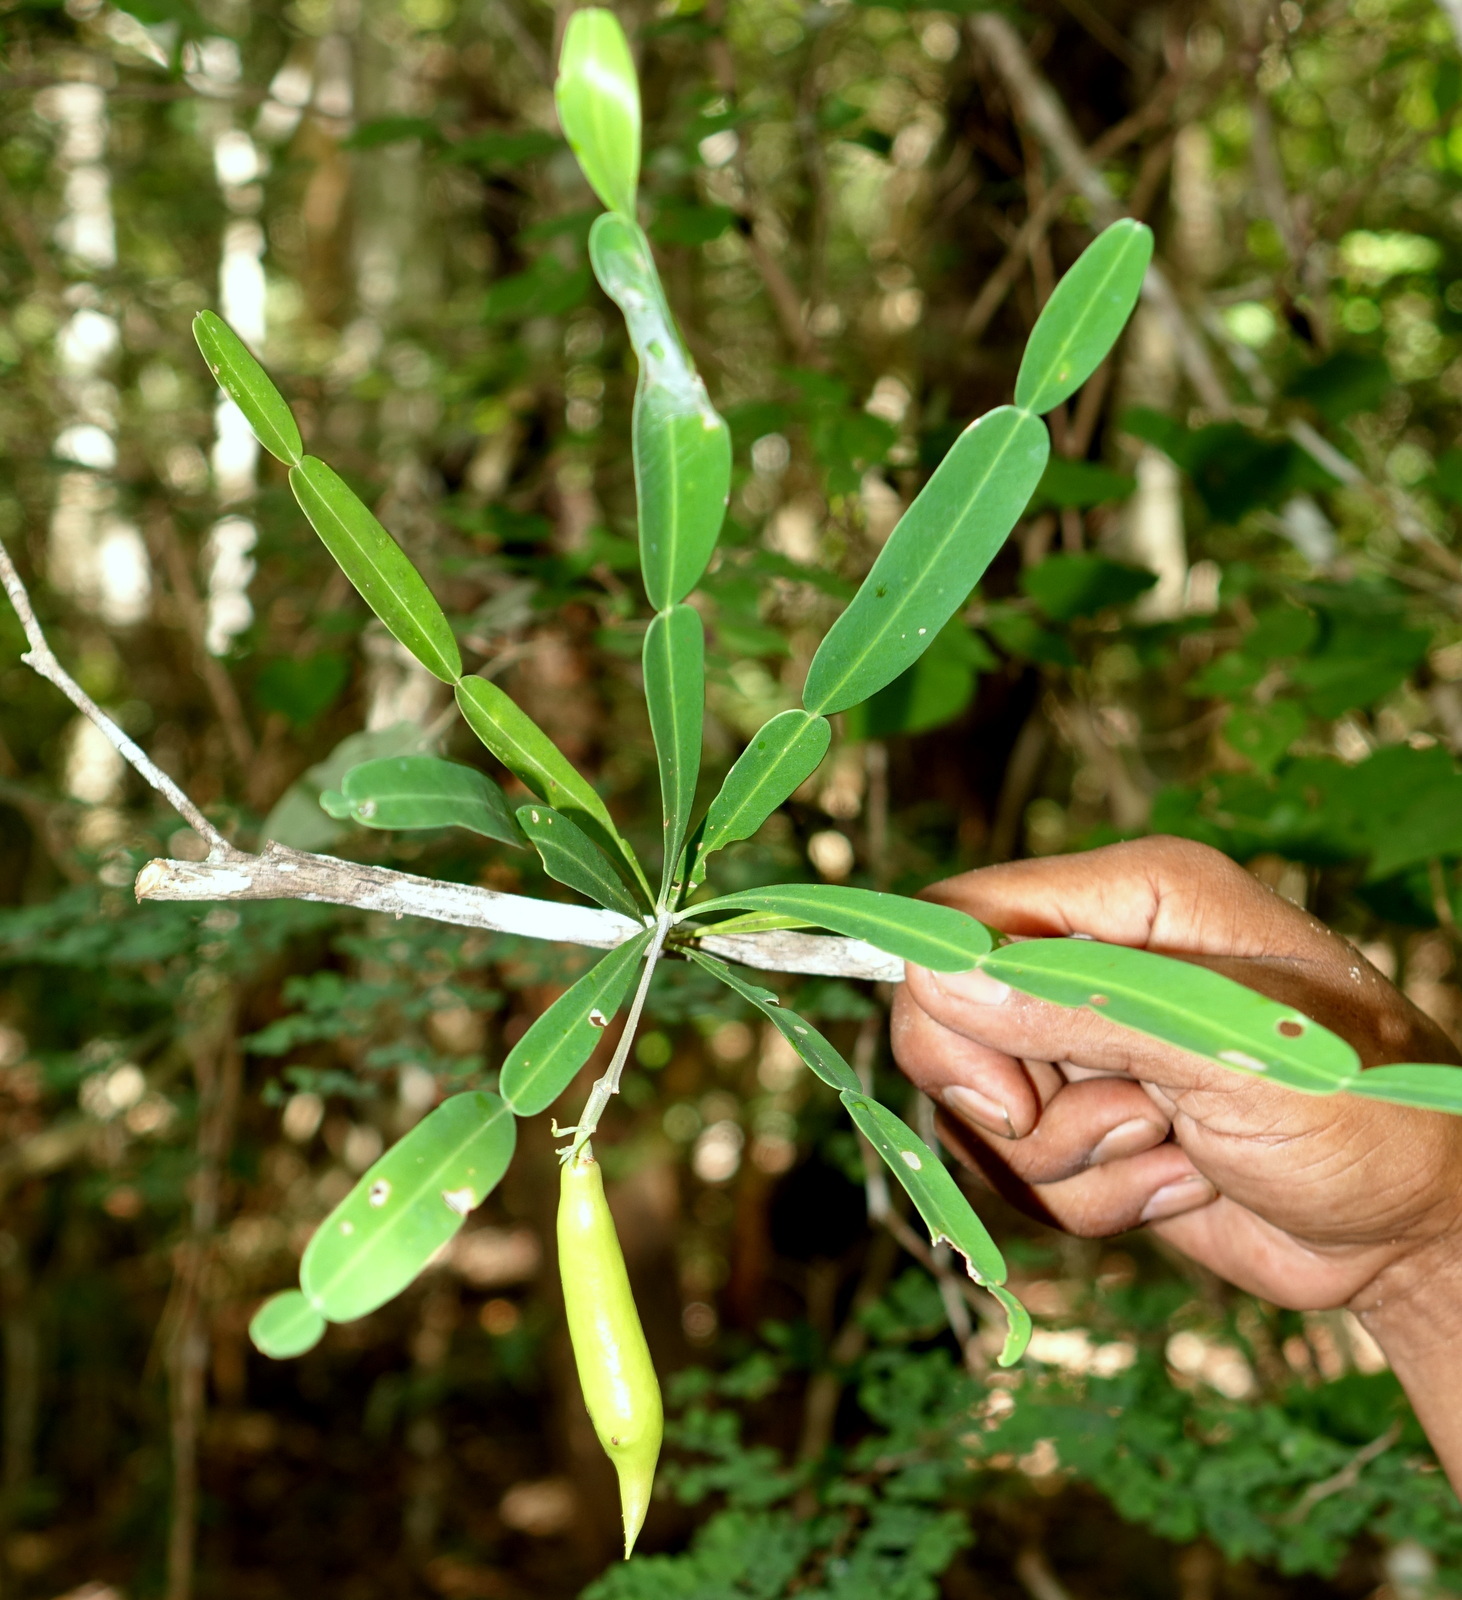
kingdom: Plantae
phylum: Tracheophyta
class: Magnoliopsida
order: Lamiales
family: Bignoniaceae
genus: Phyllarthron
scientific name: Phyllarthron bernierianum
